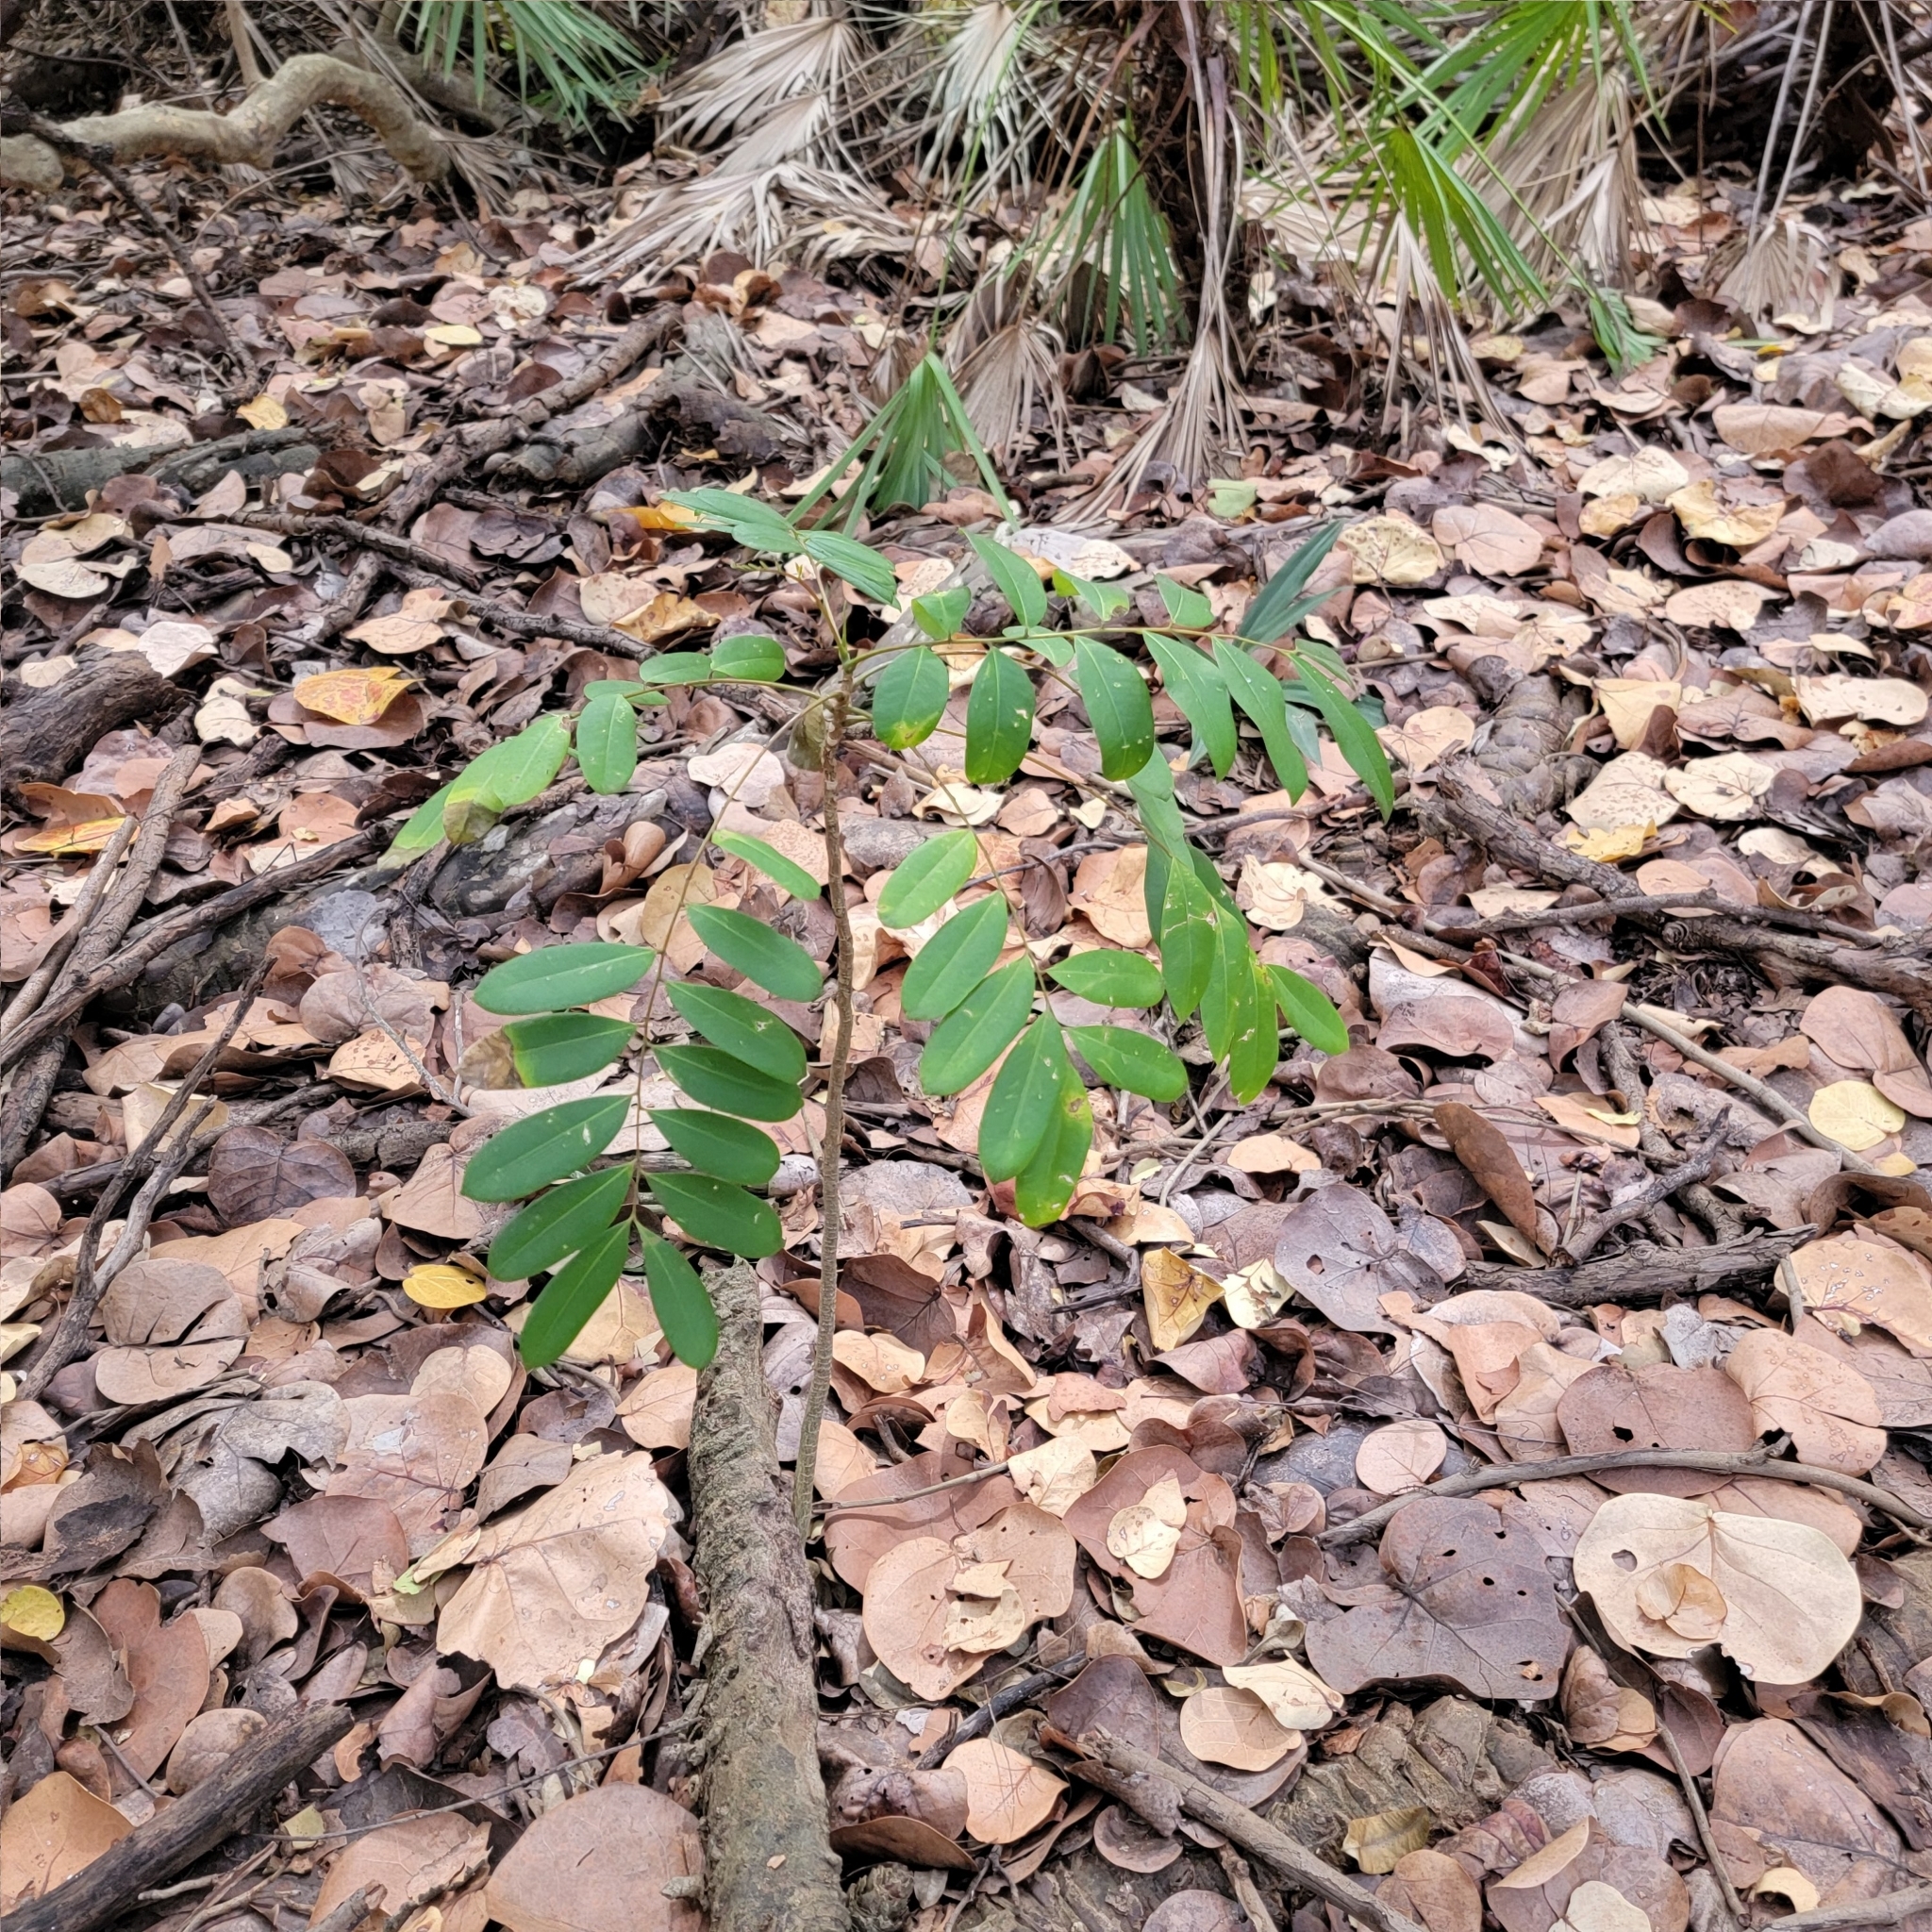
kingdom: Plantae
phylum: Tracheophyta
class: Magnoliopsida
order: Sapindales
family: Simaroubaceae
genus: Simarouba
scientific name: Simarouba glauca
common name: Dysentery-bark
